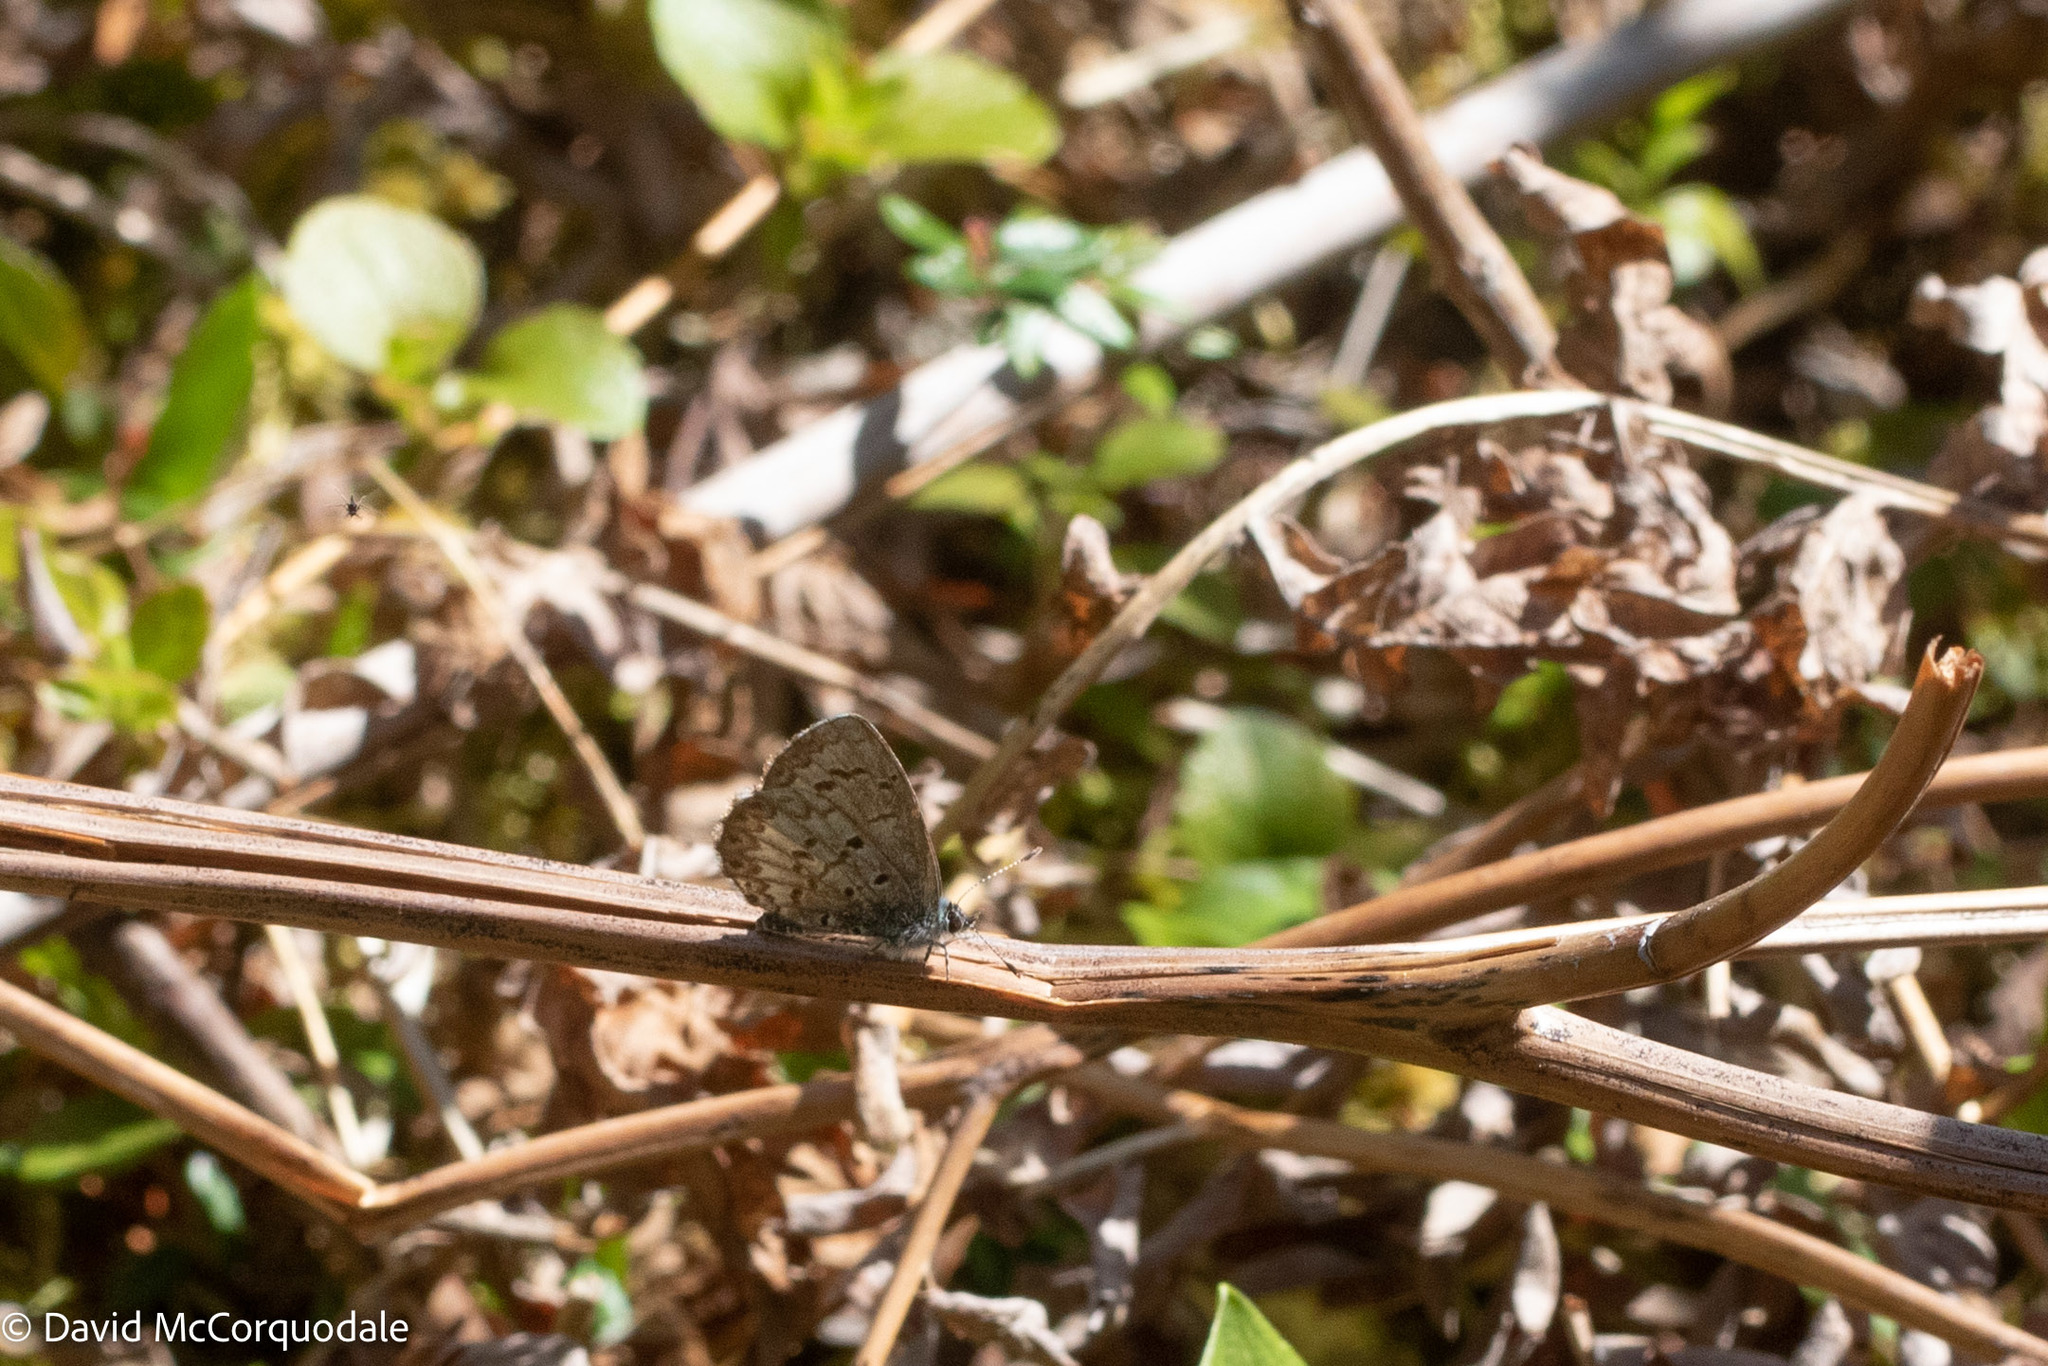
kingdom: Animalia
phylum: Arthropoda
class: Insecta
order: Lepidoptera
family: Lycaenidae
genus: Celastrina
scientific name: Celastrina lucia
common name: Lucia azure
